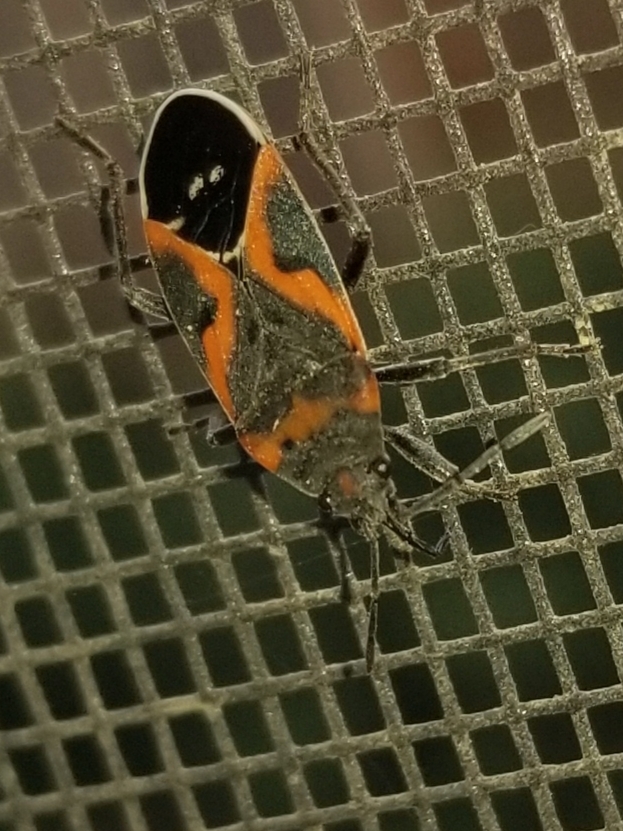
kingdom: Animalia
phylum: Arthropoda
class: Insecta
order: Hemiptera
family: Lygaeidae
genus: Lygaeus
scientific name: Lygaeus kalmii
